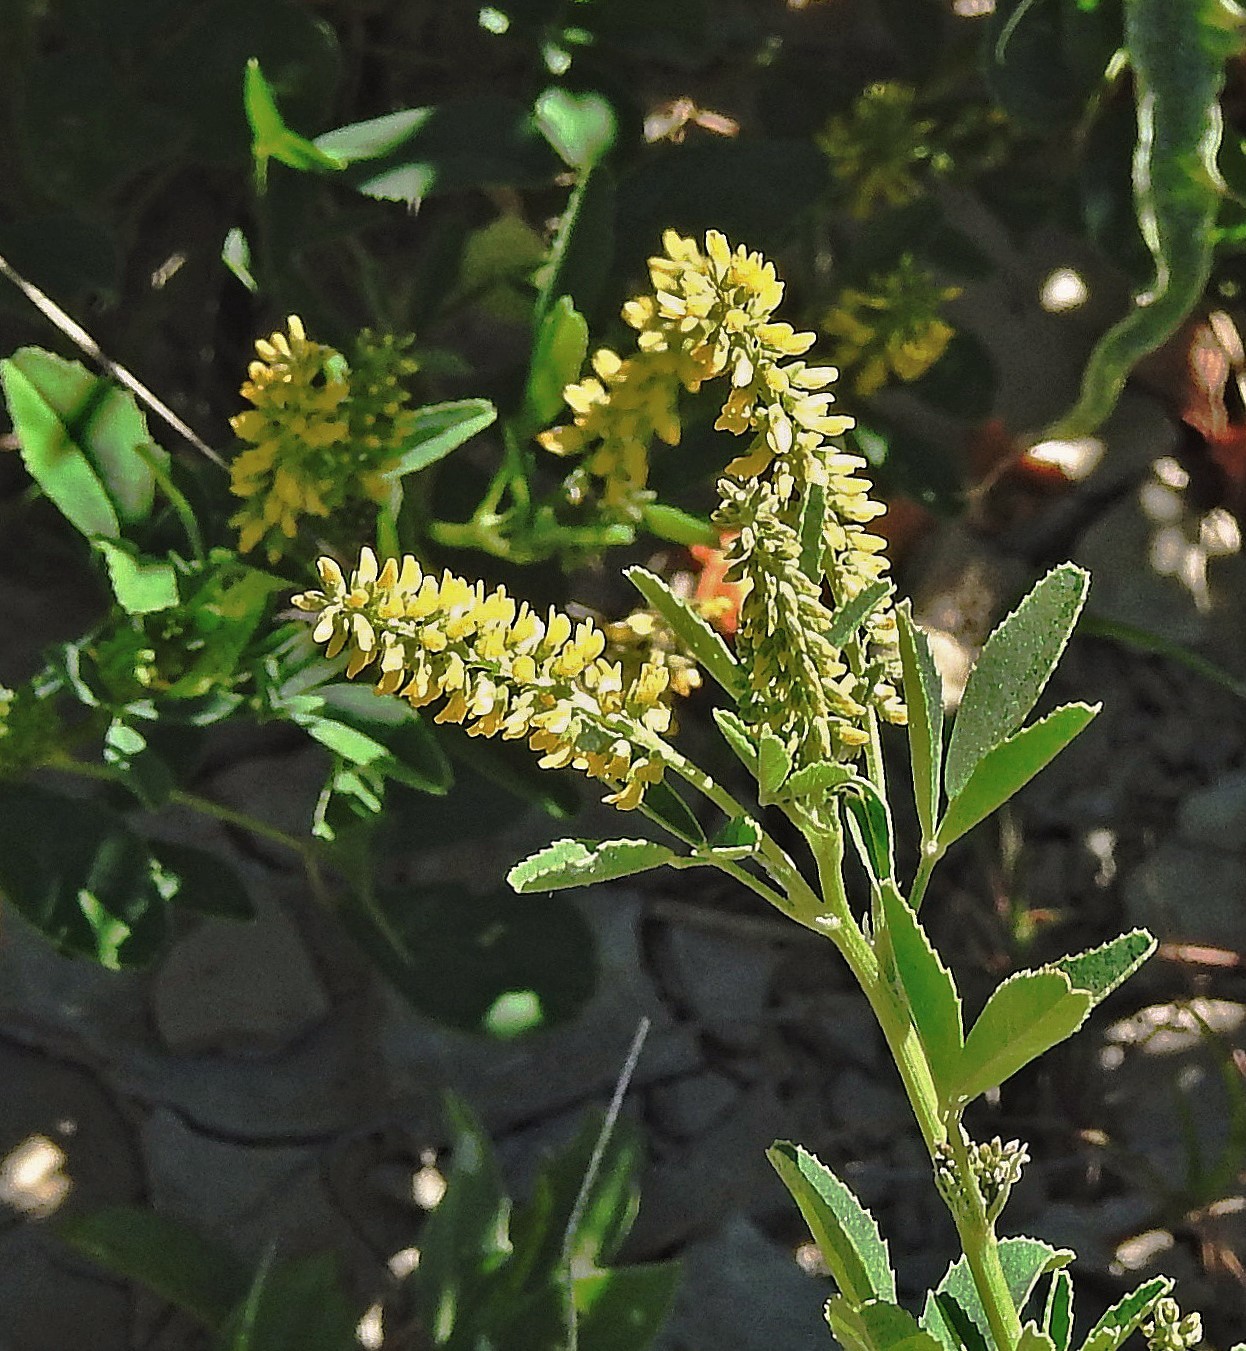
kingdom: Plantae
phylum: Tracheophyta
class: Magnoliopsida
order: Fabales
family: Fabaceae
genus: Melilotus
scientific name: Melilotus indicus
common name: Small melilot
